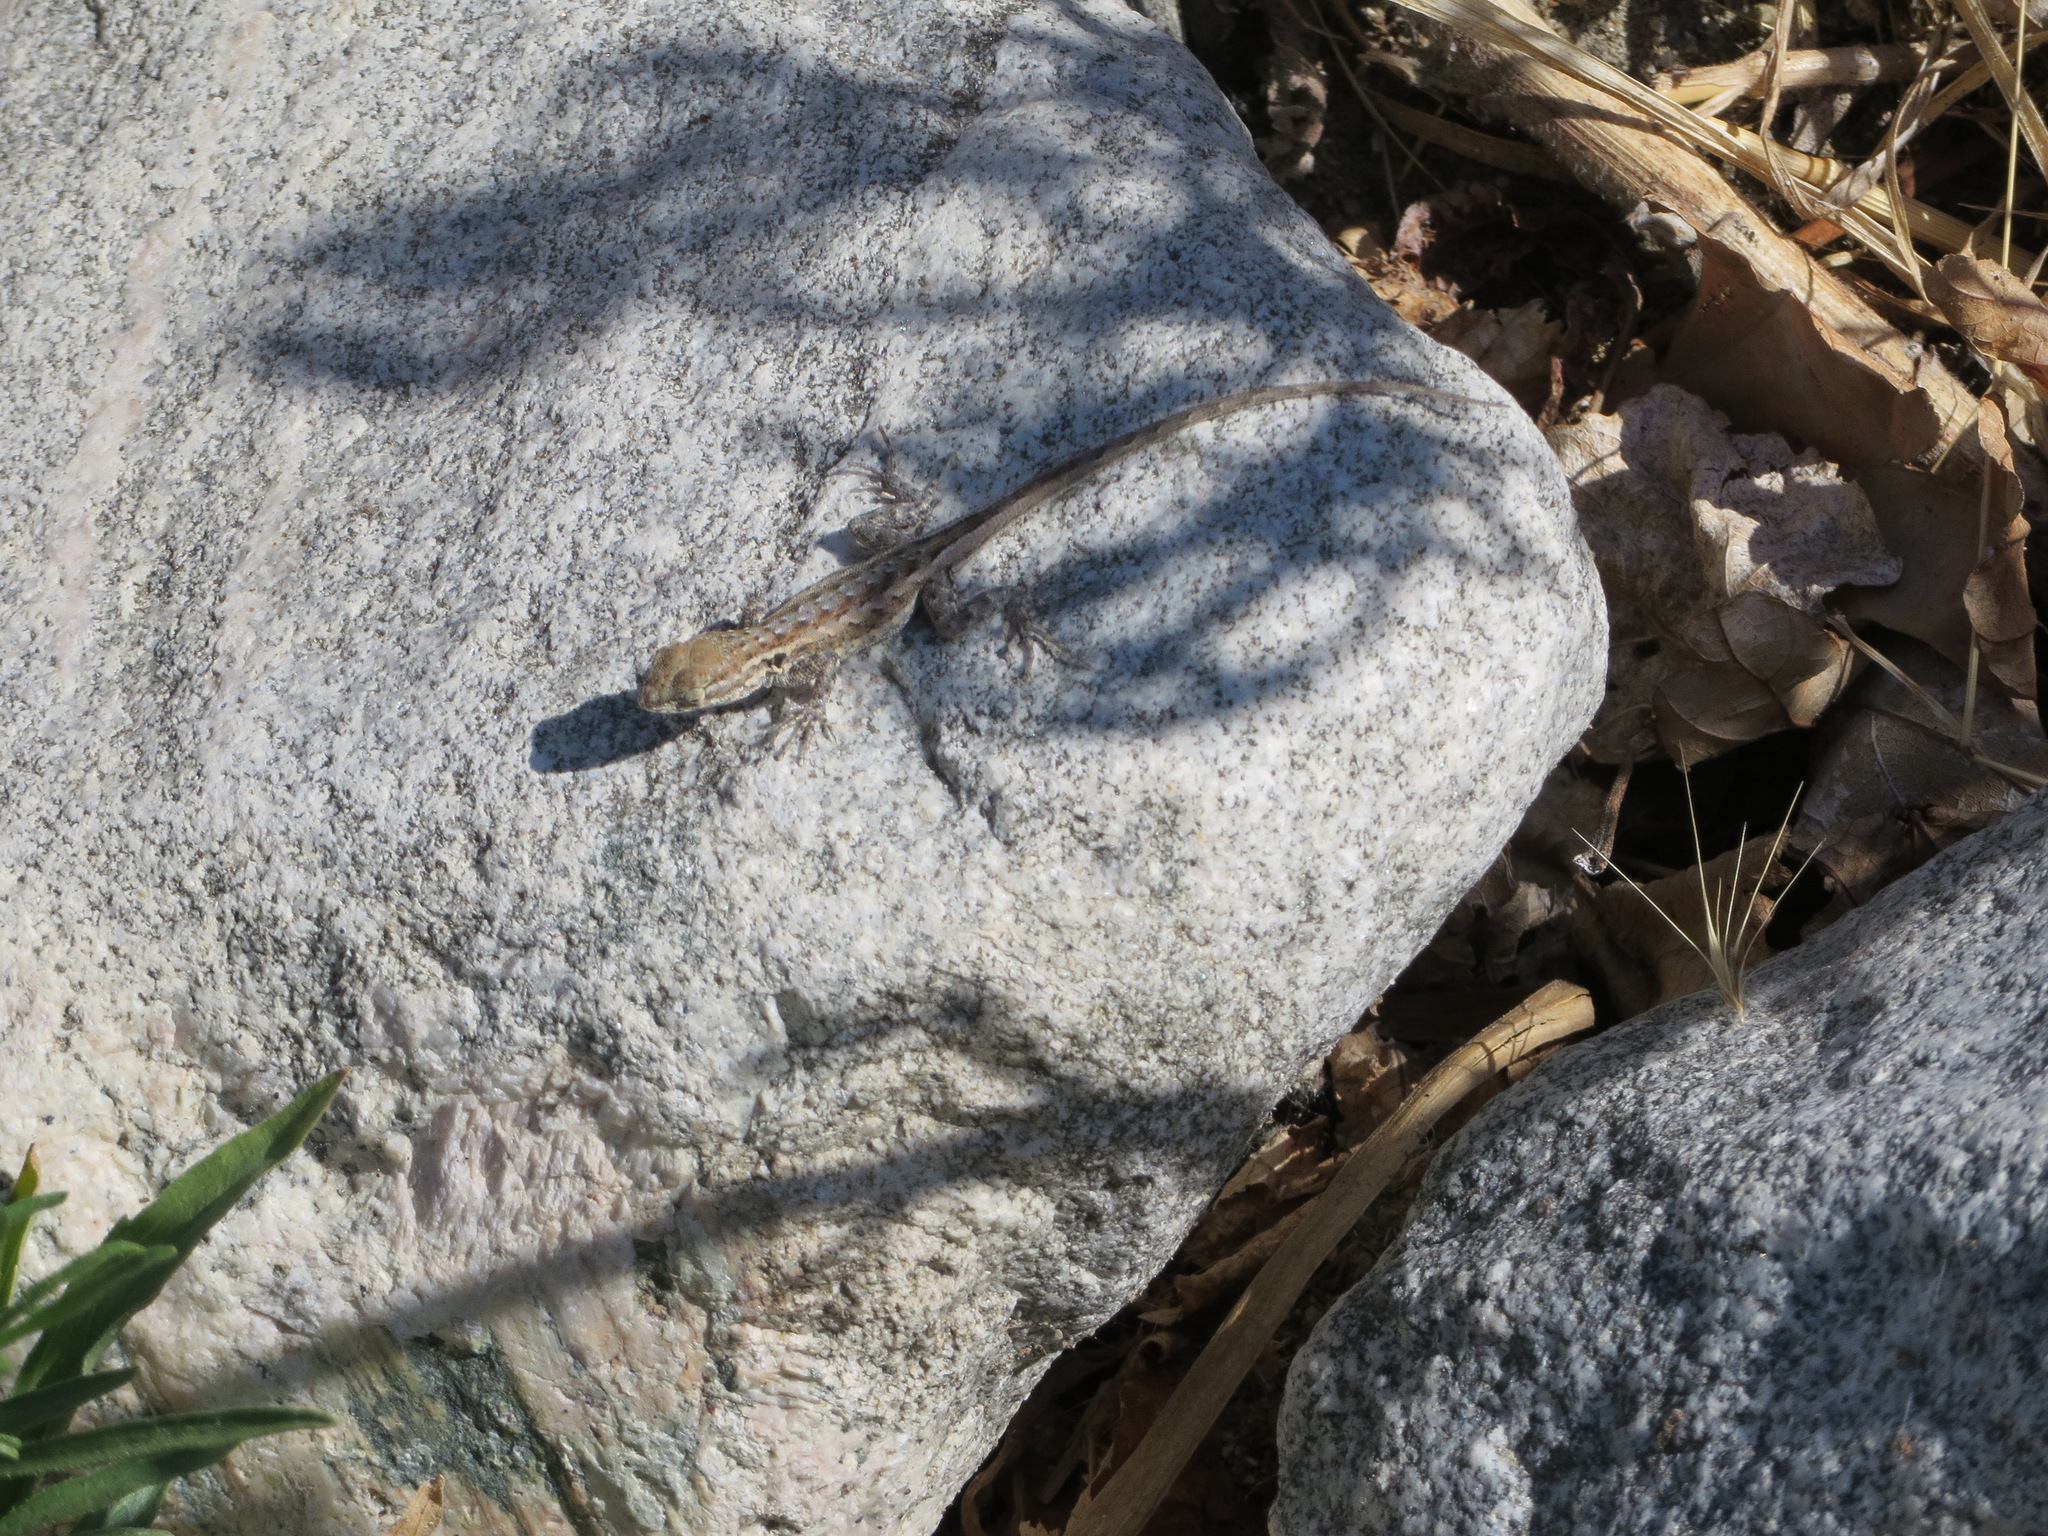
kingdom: Animalia
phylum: Chordata
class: Squamata
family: Phrynosomatidae
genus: Uta
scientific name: Uta stansburiana
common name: Side-blotched lizard
